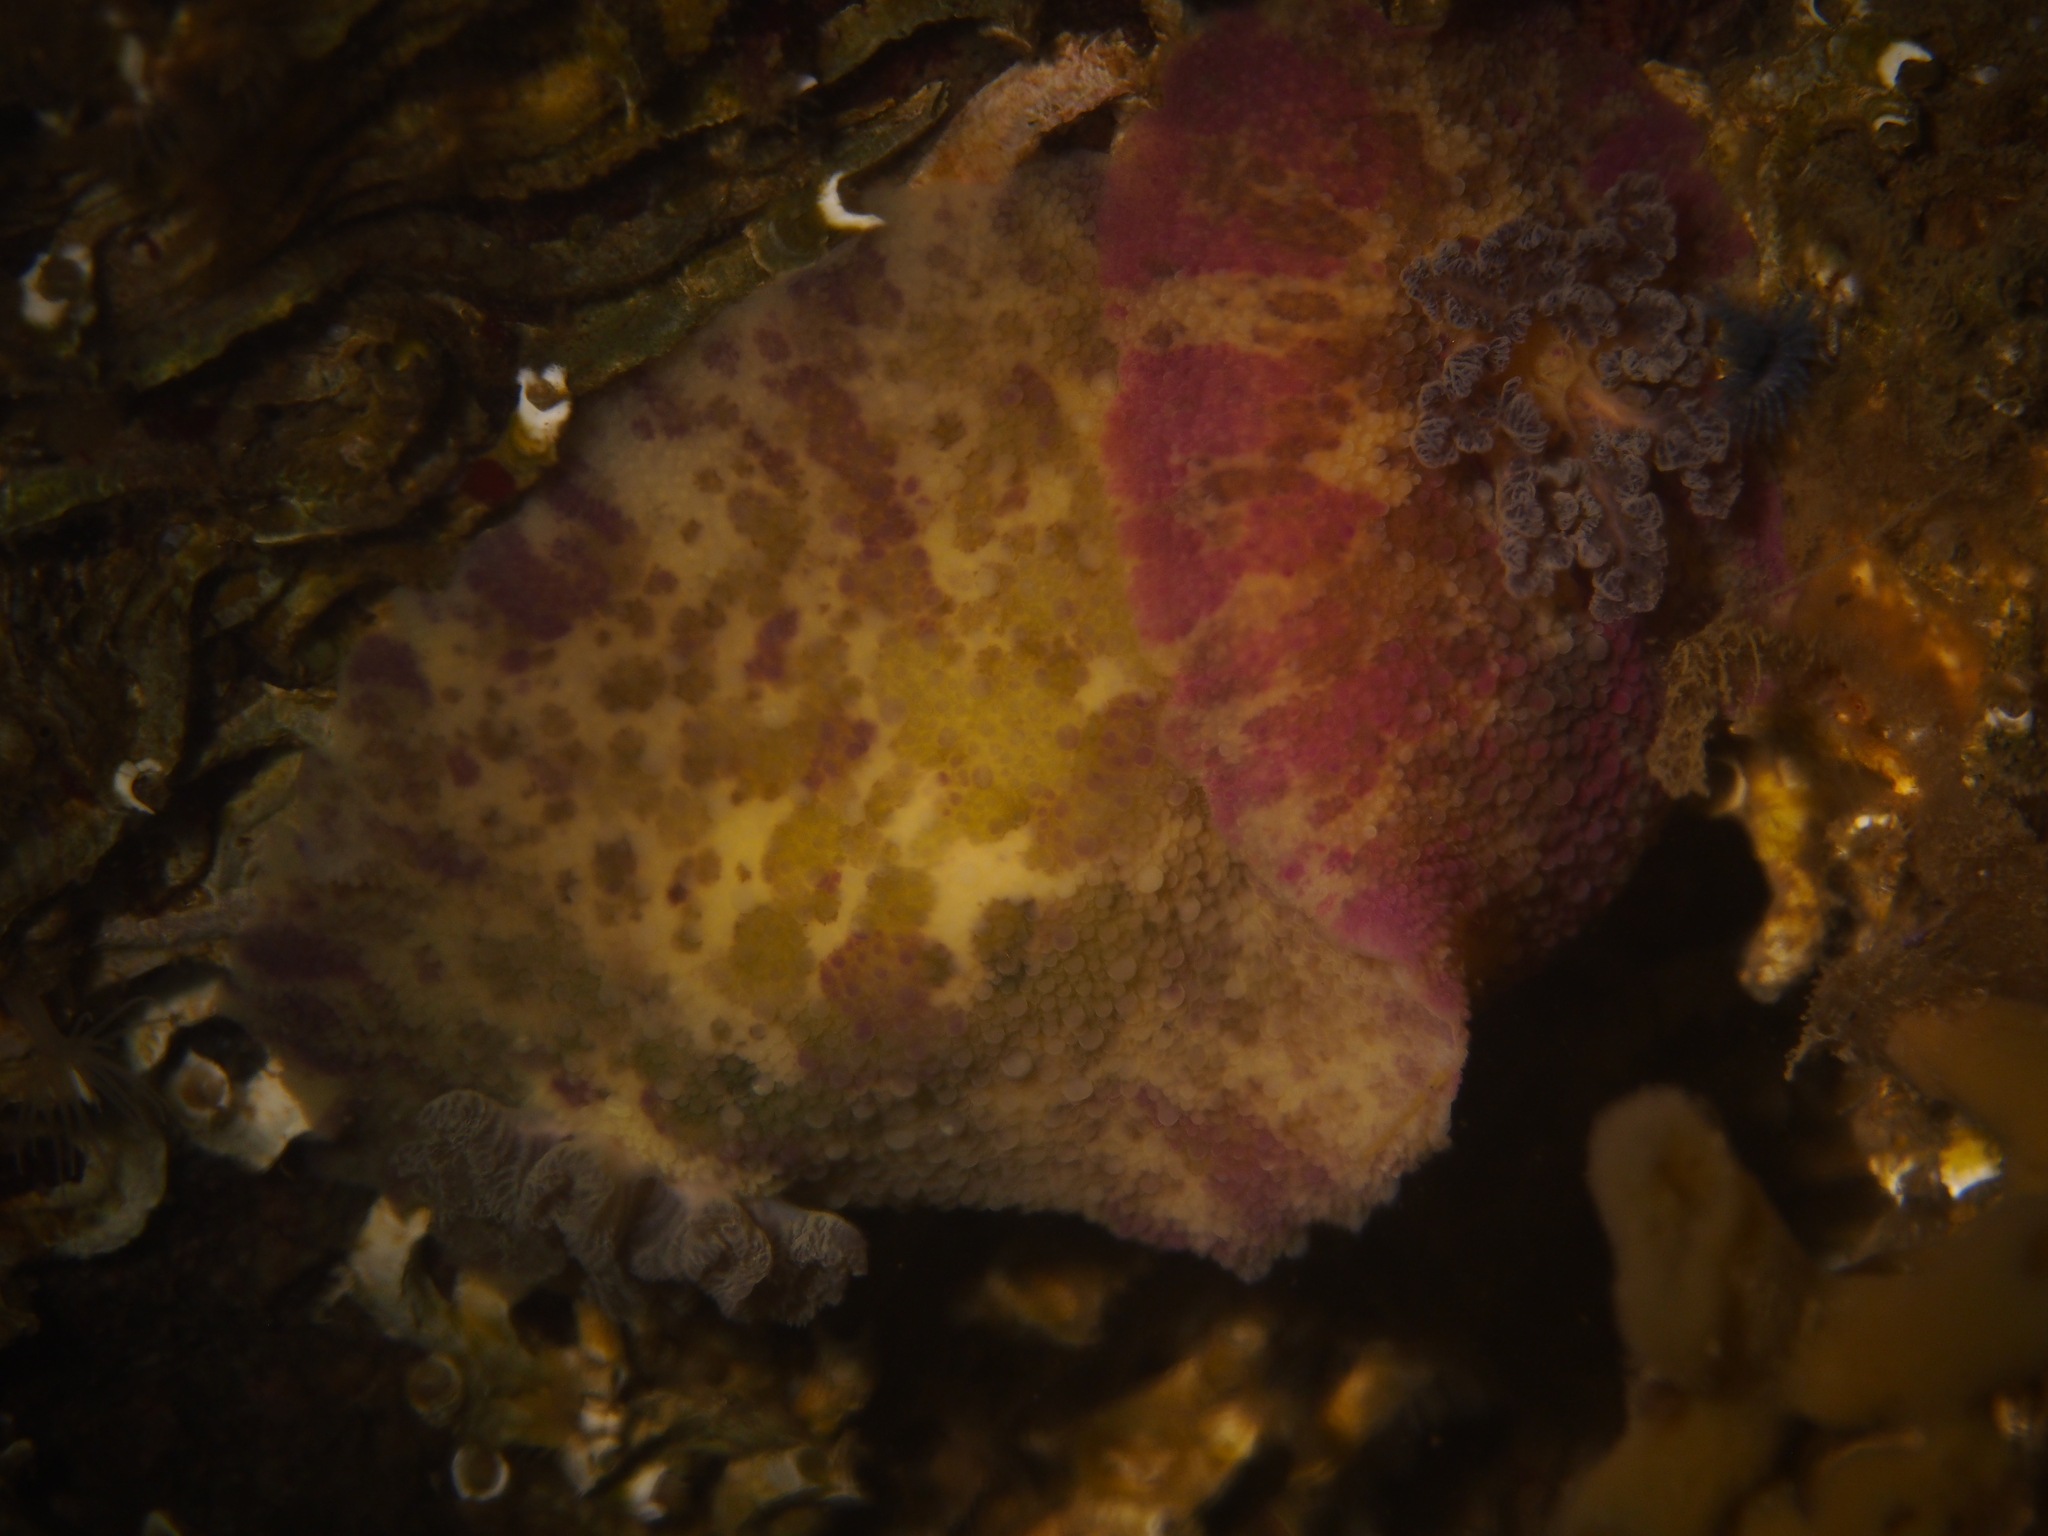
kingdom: Animalia
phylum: Mollusca
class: Gastropoda
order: Nudibranchia
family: Dorididae
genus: Doris
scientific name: Doris pseudoargus
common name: Sea lemon
